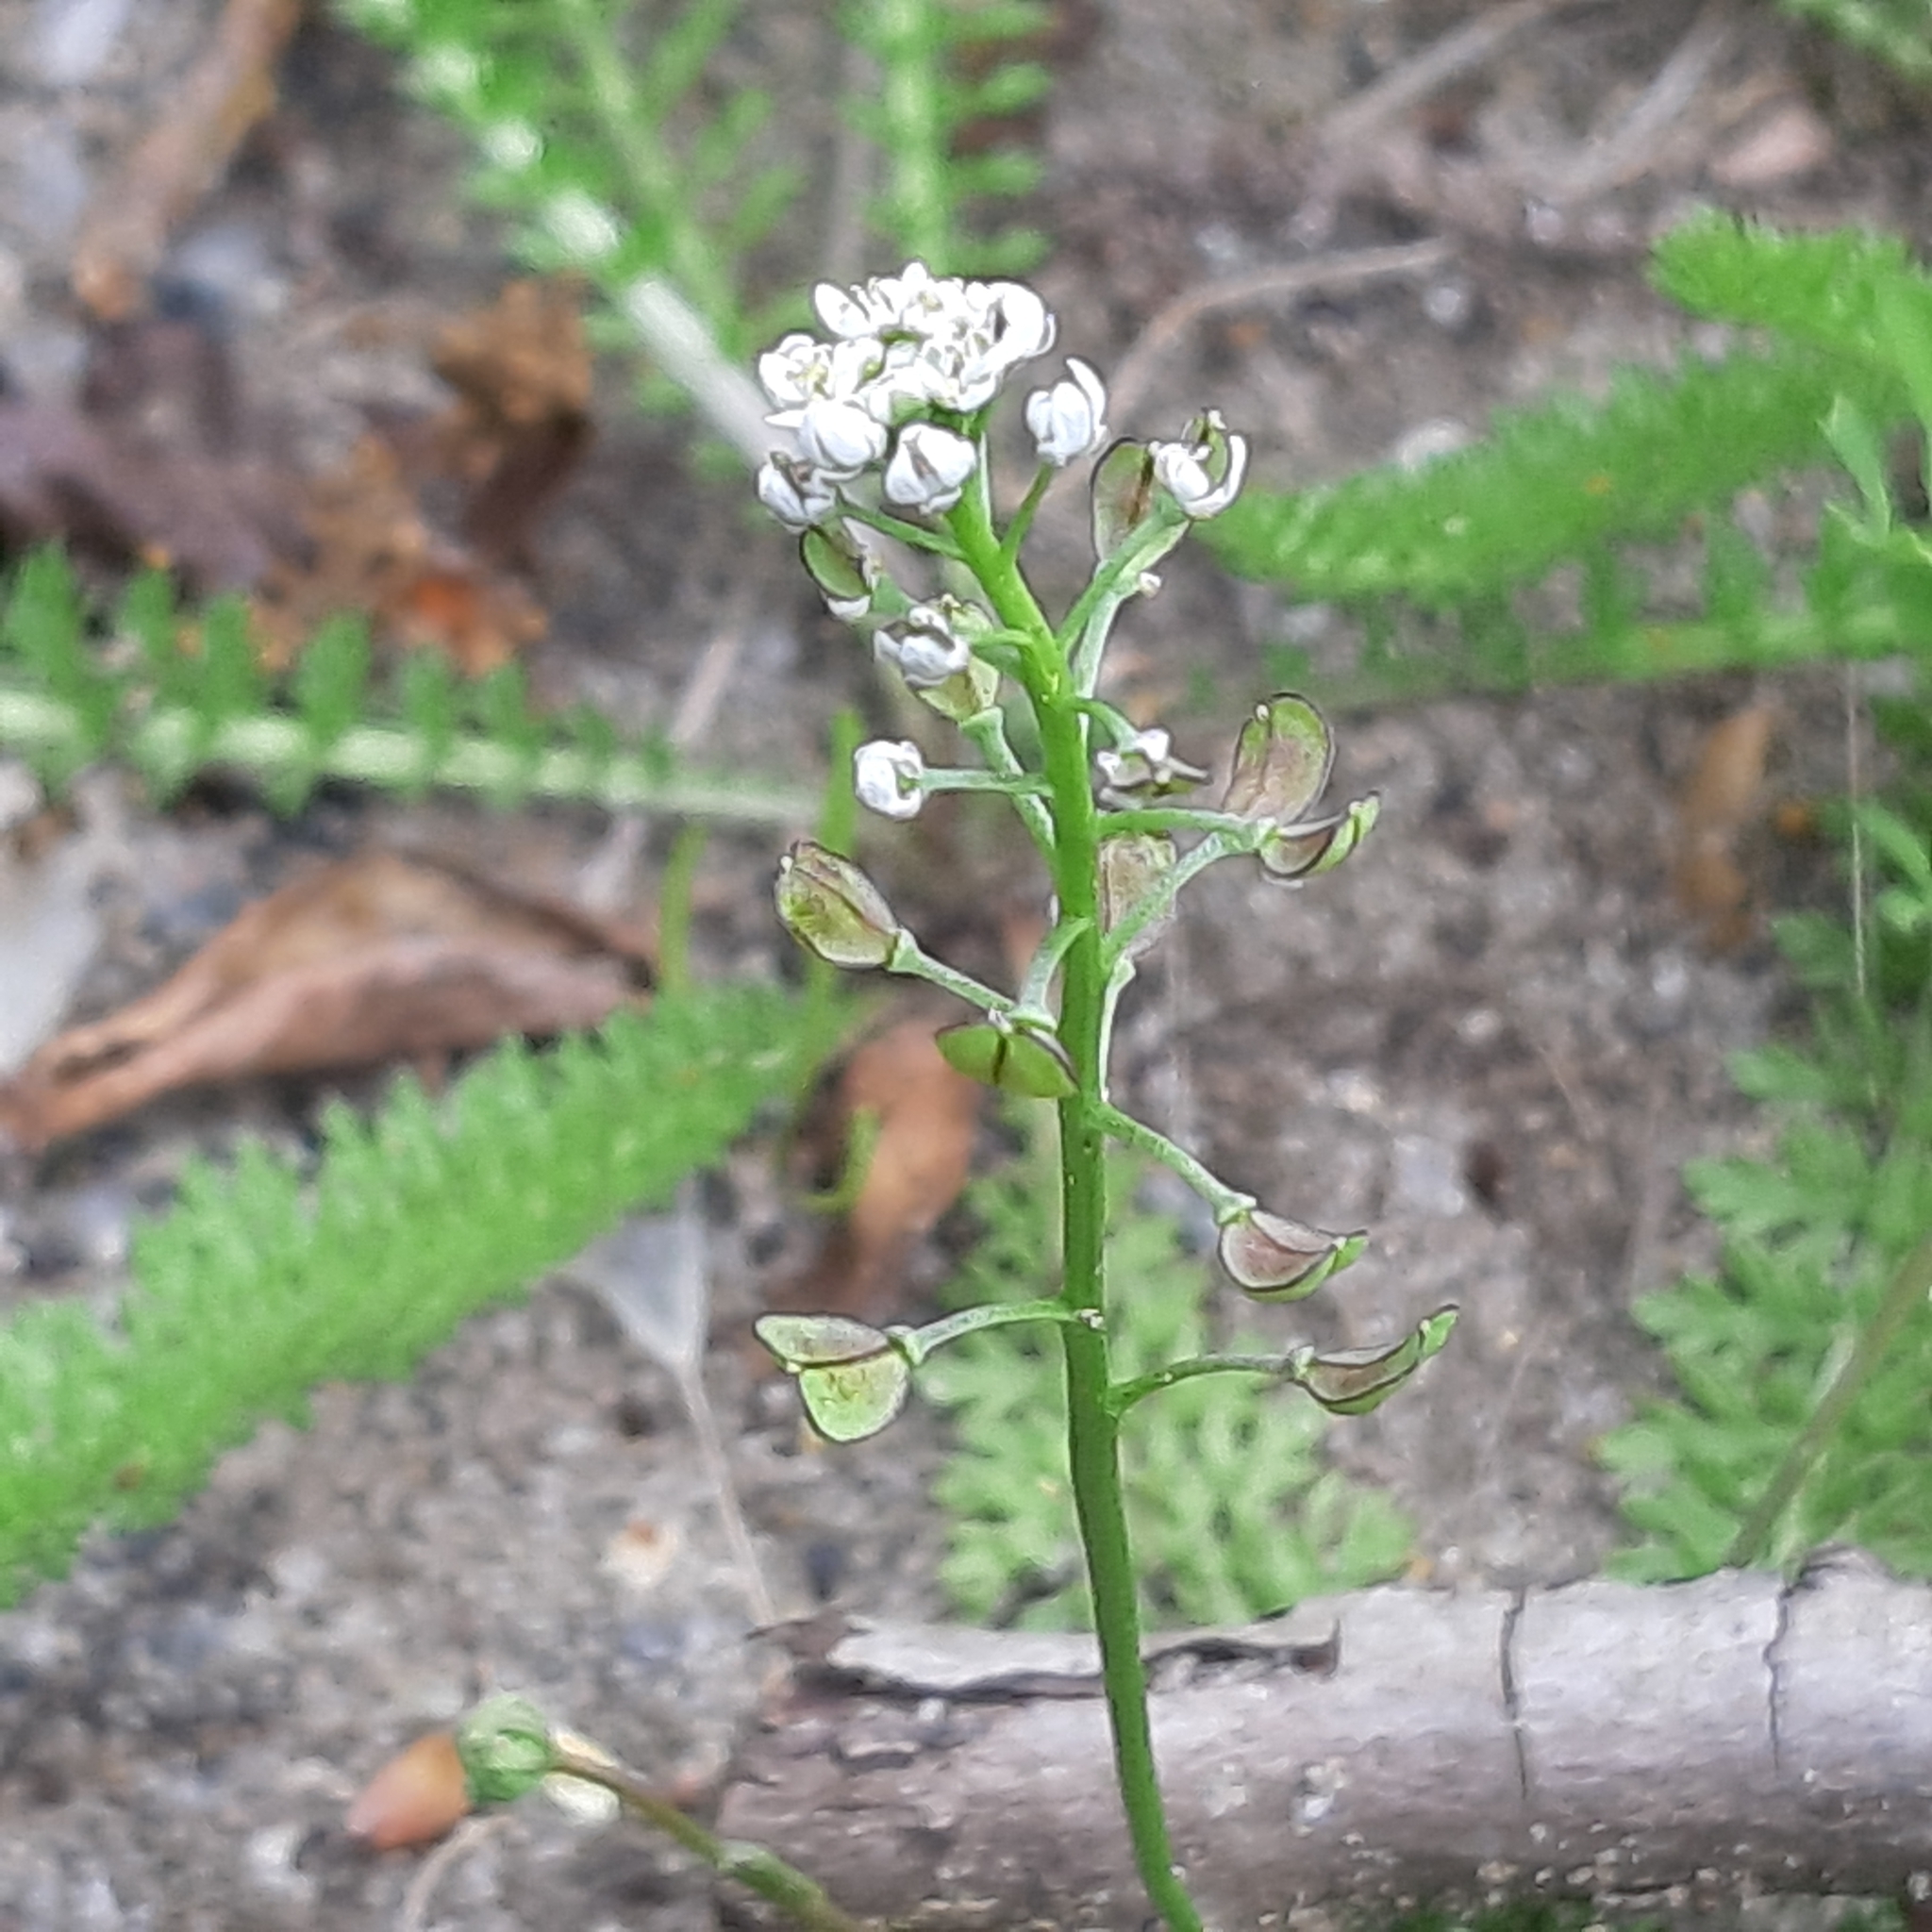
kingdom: Plantae
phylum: Tracheophyta
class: Magnoliopsida
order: Brassicales
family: Brassicaceae
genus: Teesdalia
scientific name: Teesdalia nudicaulis
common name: Shepherd's cress
